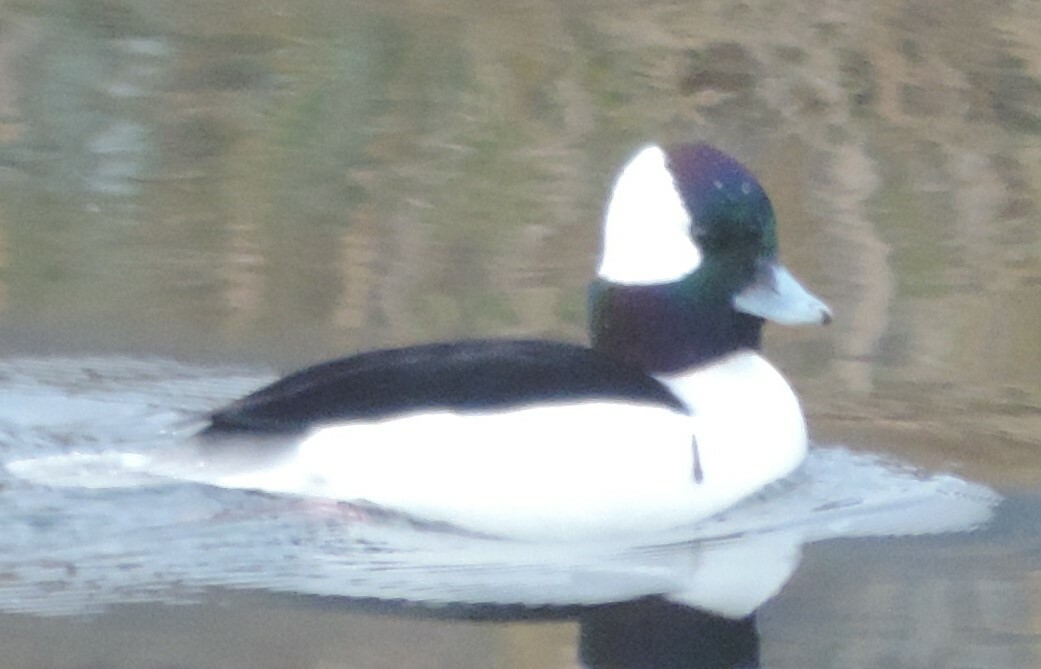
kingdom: Animalia
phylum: Chordata
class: Aves
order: Anseriformes
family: Anatidae
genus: Bucephala
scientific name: Bucephala albeola
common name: Bufflehead
